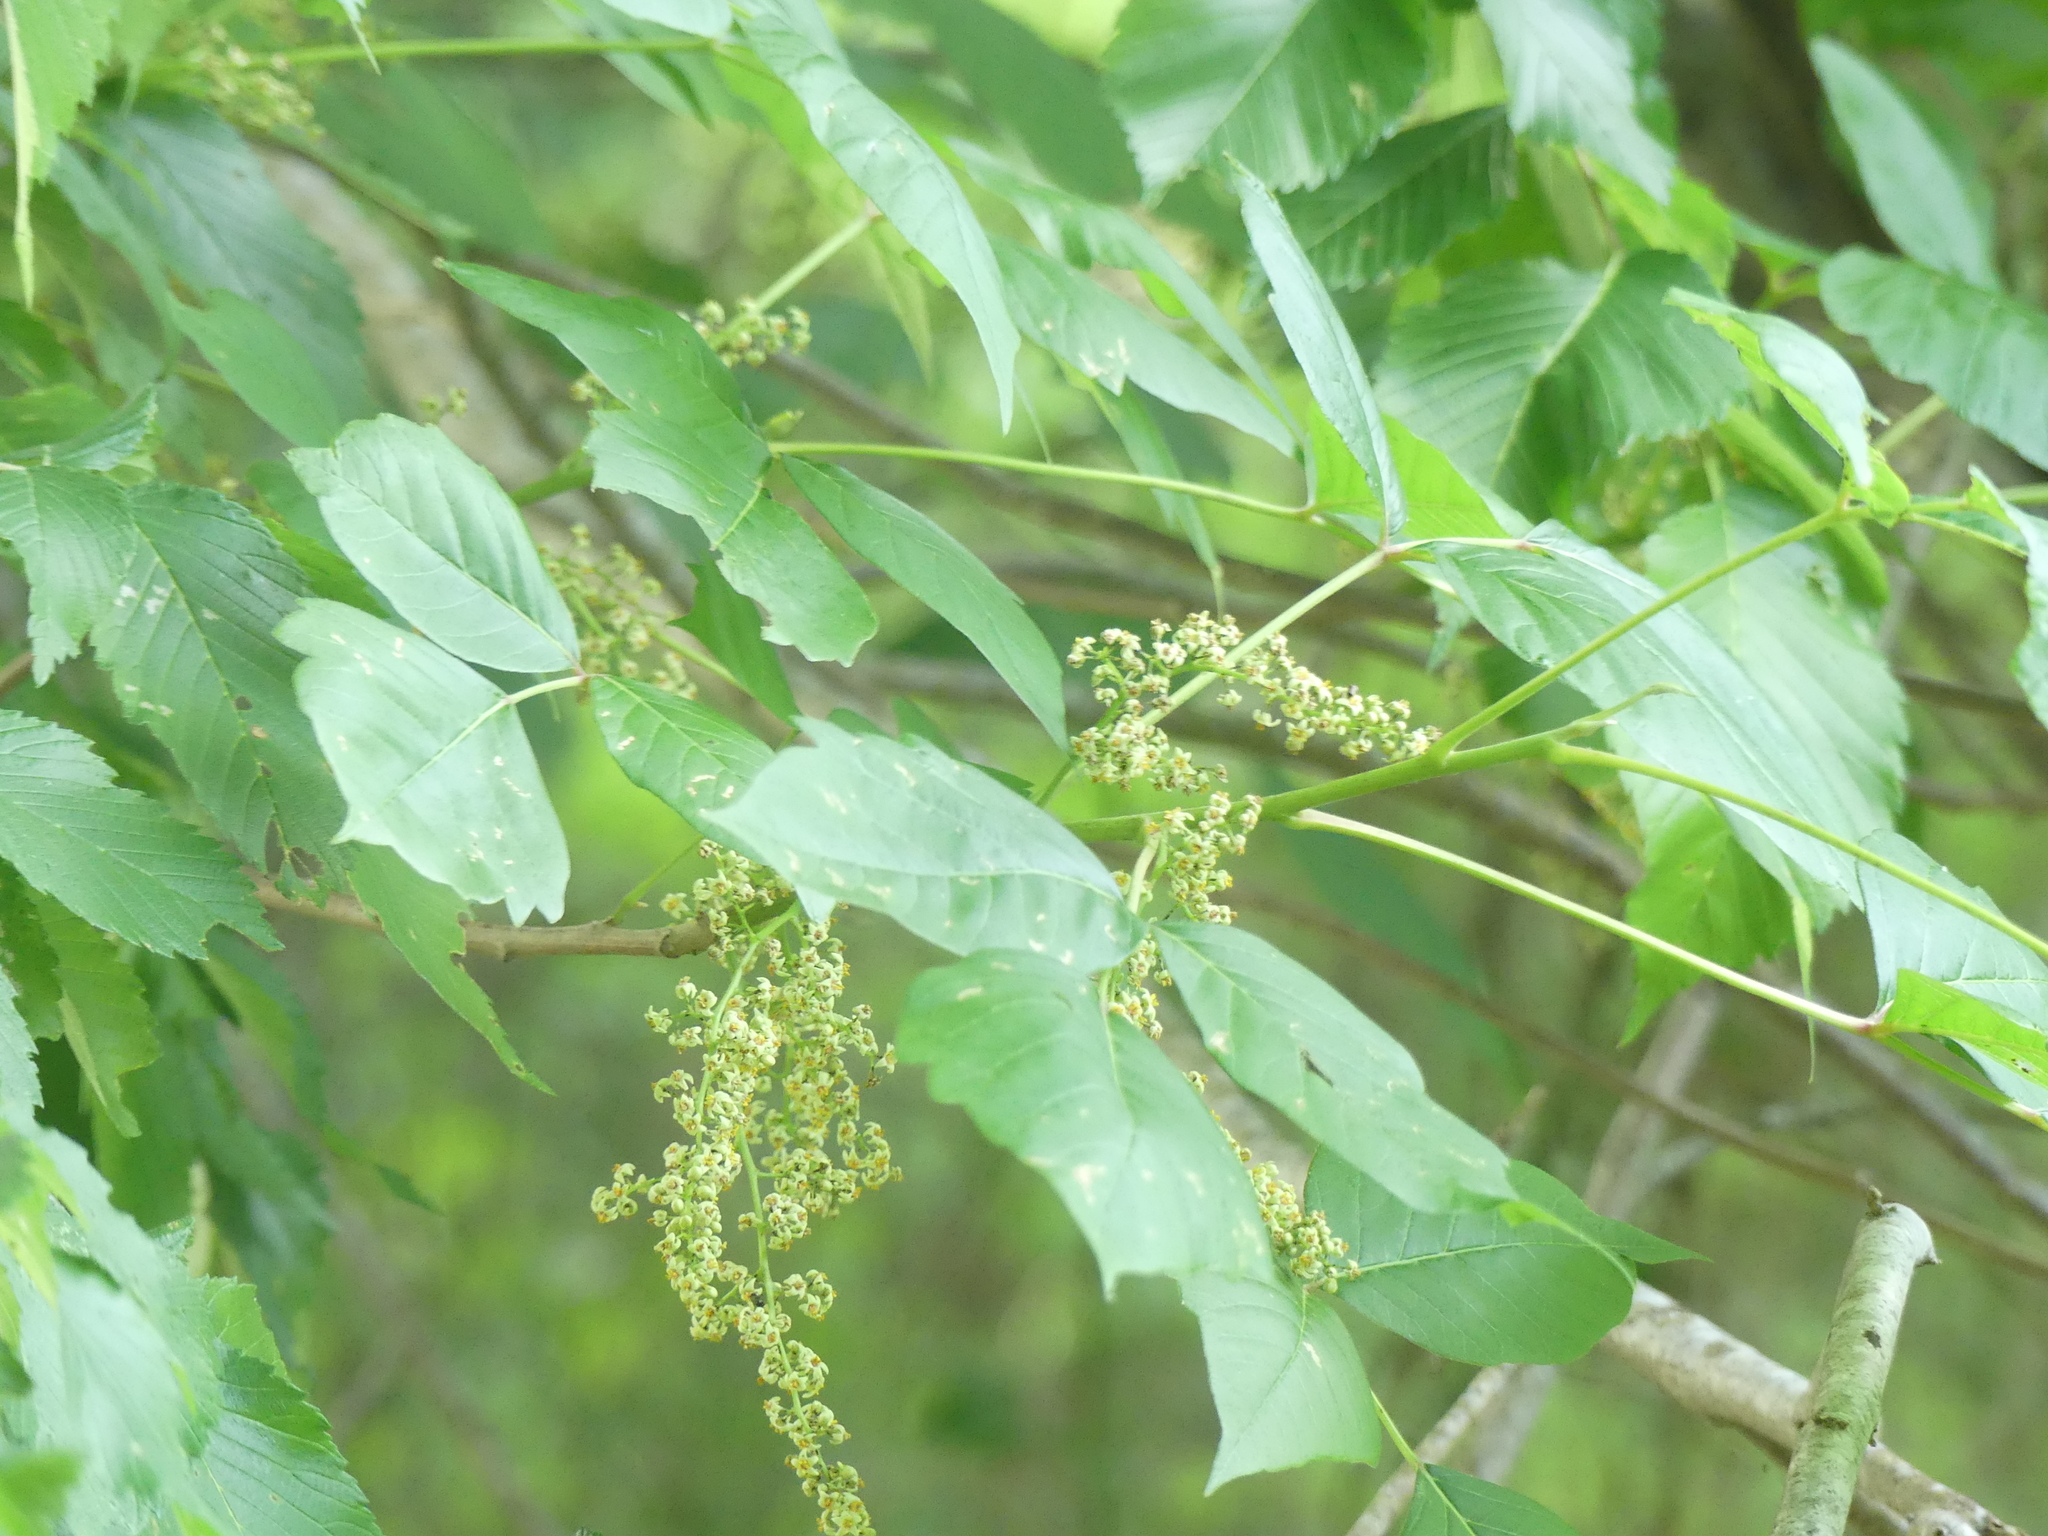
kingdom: Plantae
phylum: Tracheophyta
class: Magnoliopsida
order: Sapindales
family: Anacardiaceae
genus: Toxicodendron
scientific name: Toxicodendron radicans
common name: Poison ivy
